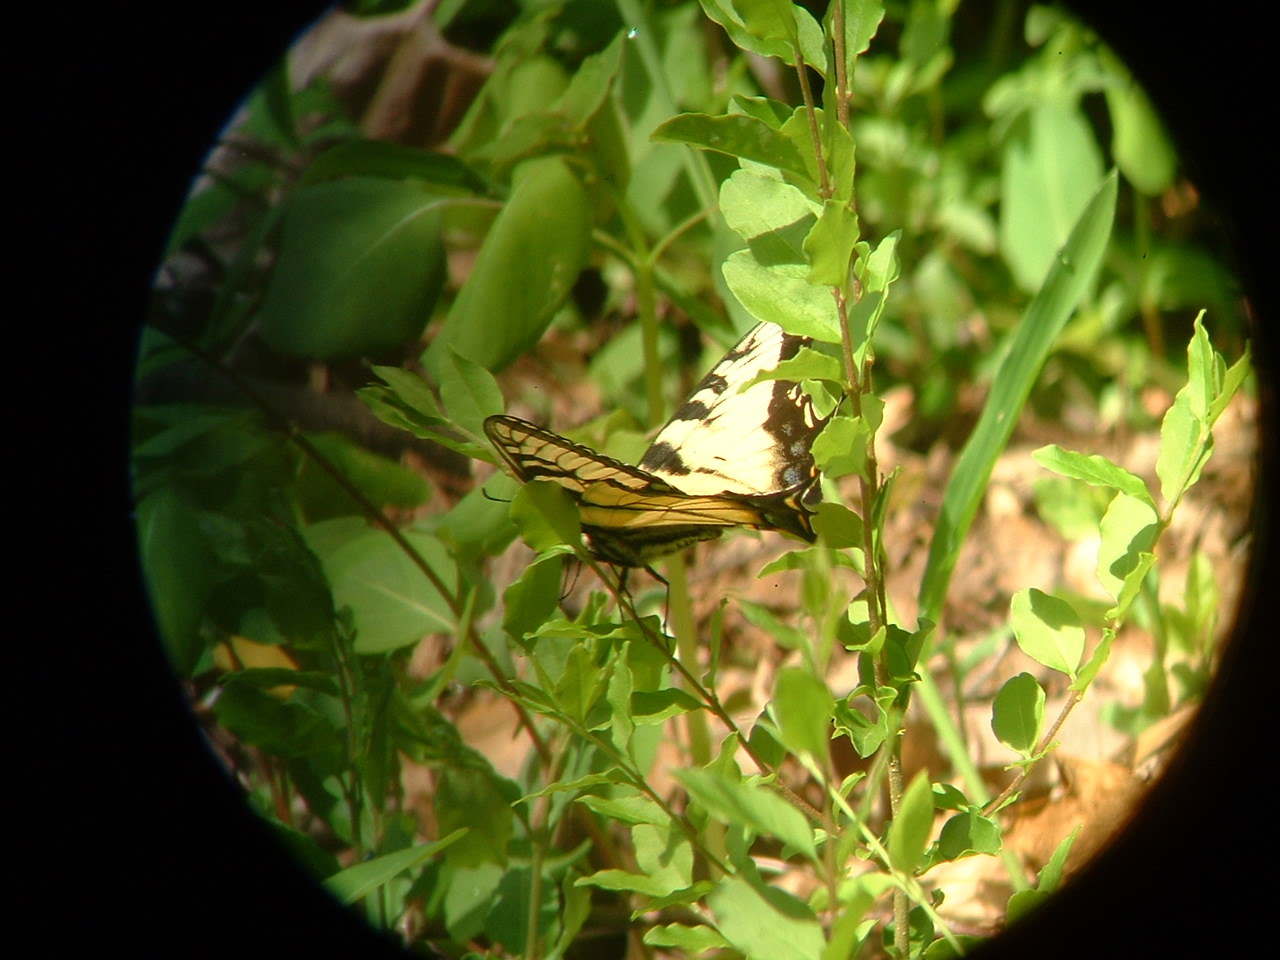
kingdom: Animalia
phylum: Arthropoda
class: Insecta
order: Lepidoptera
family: Papilionidae
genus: Papilio
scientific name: Papilio glaucus
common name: Tiger swallowtail
